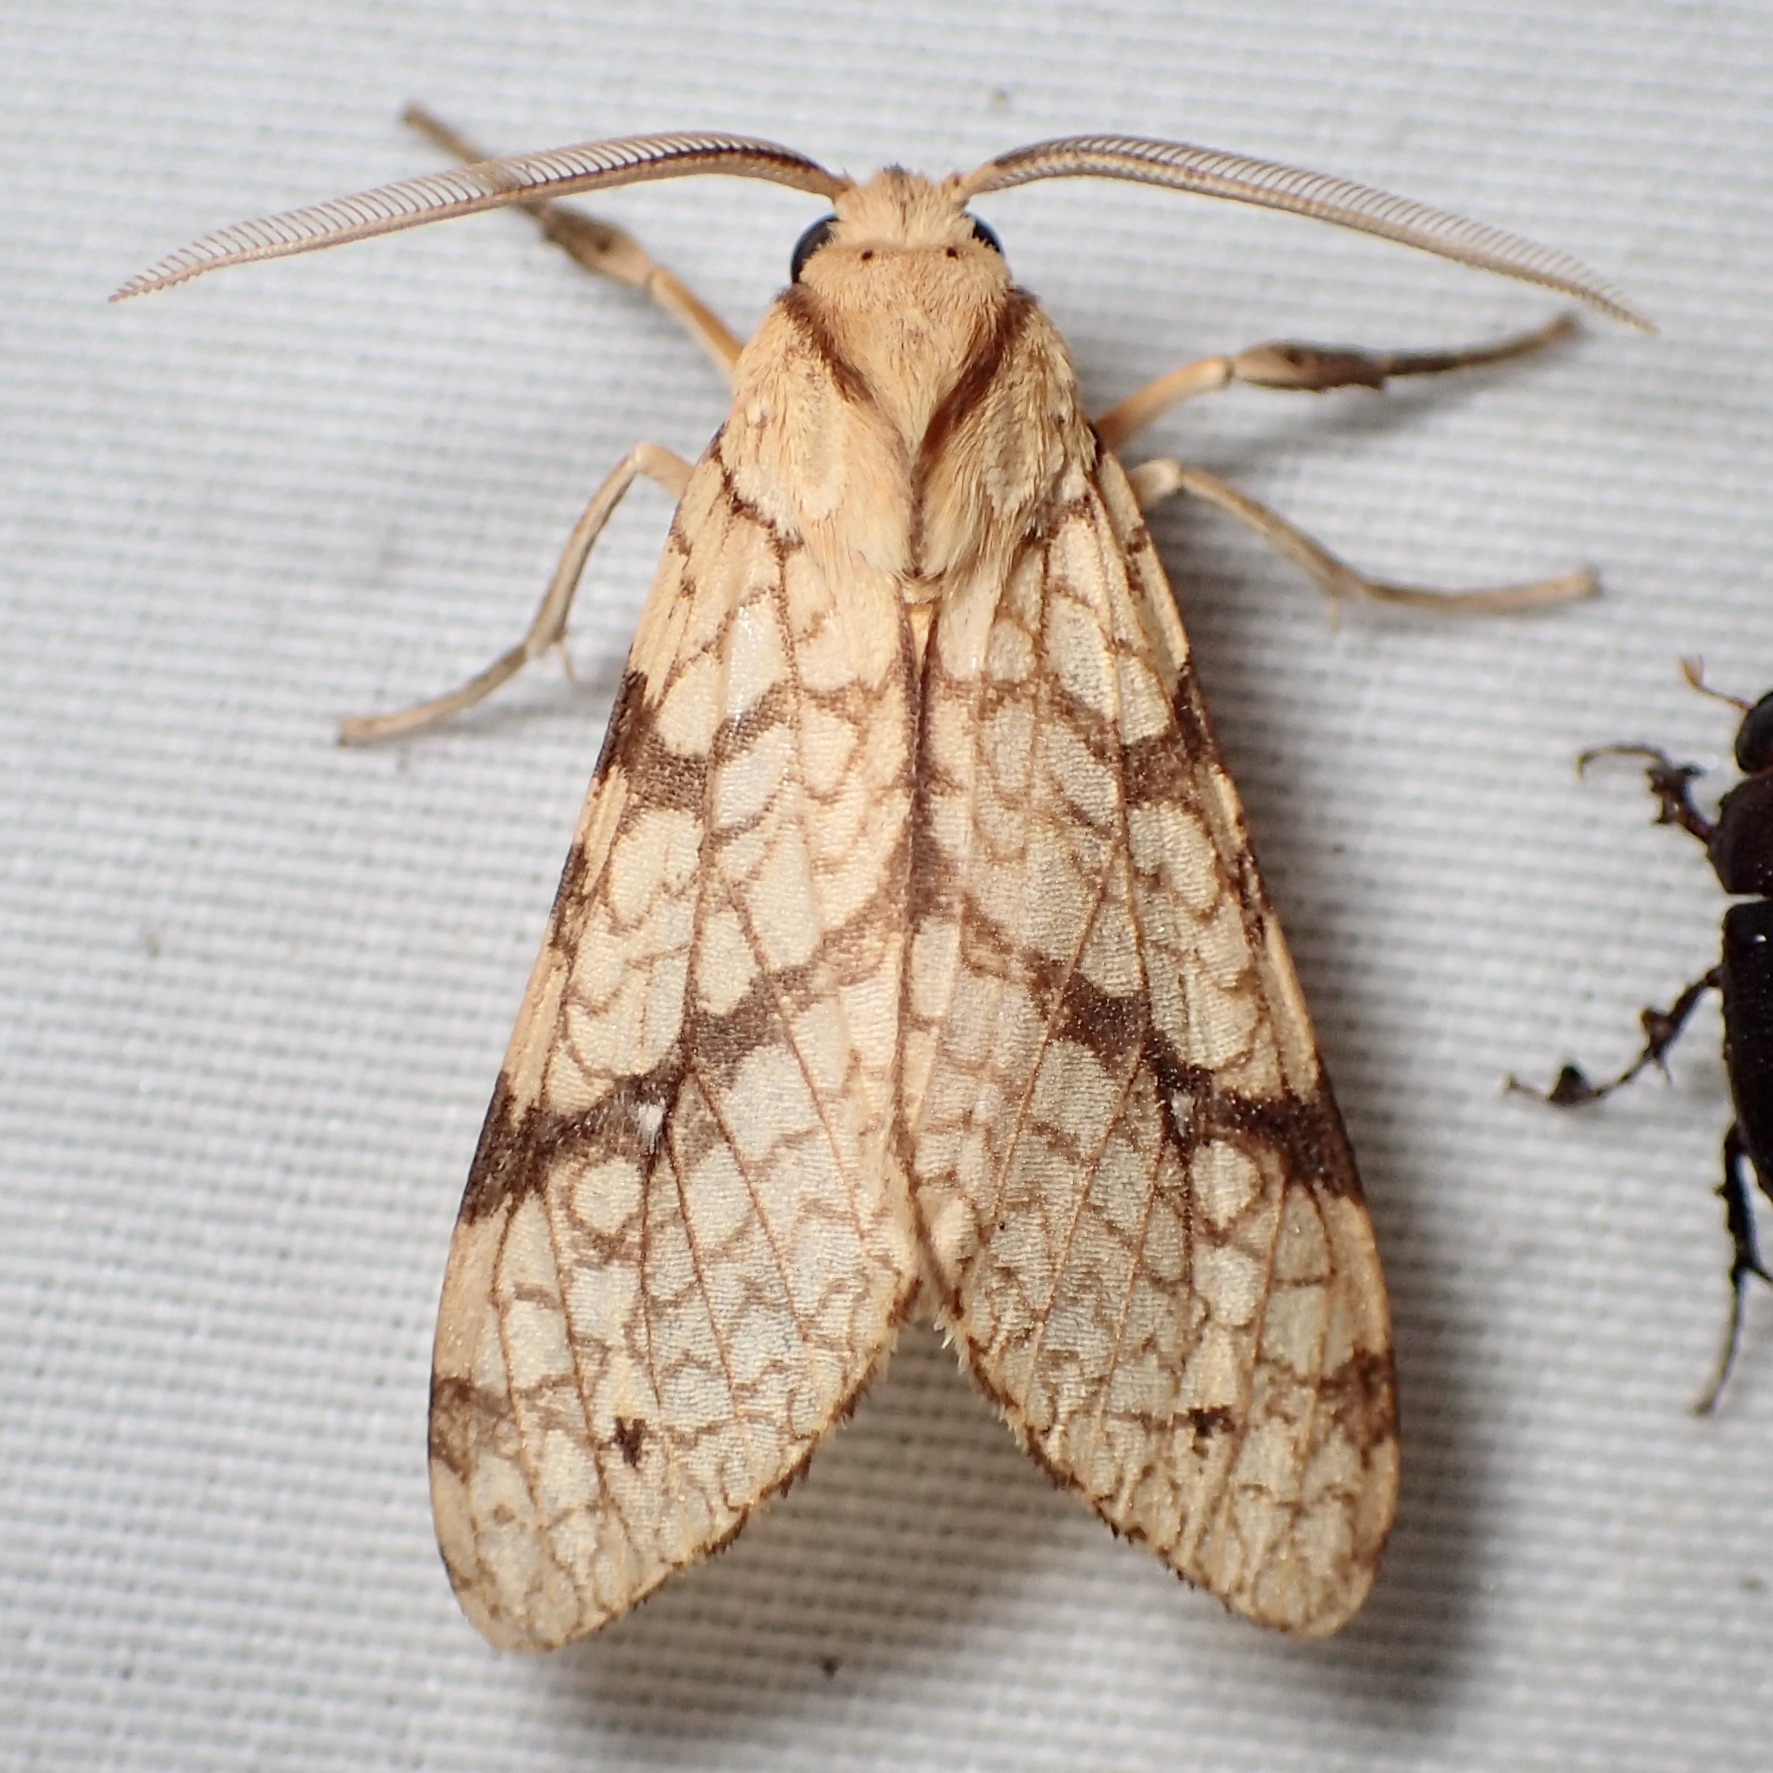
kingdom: Animalia
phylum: Arthropoda
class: Insecta
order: Lepidoptera
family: Erebidae
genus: Lophocampa
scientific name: Lophocampa annulosa
